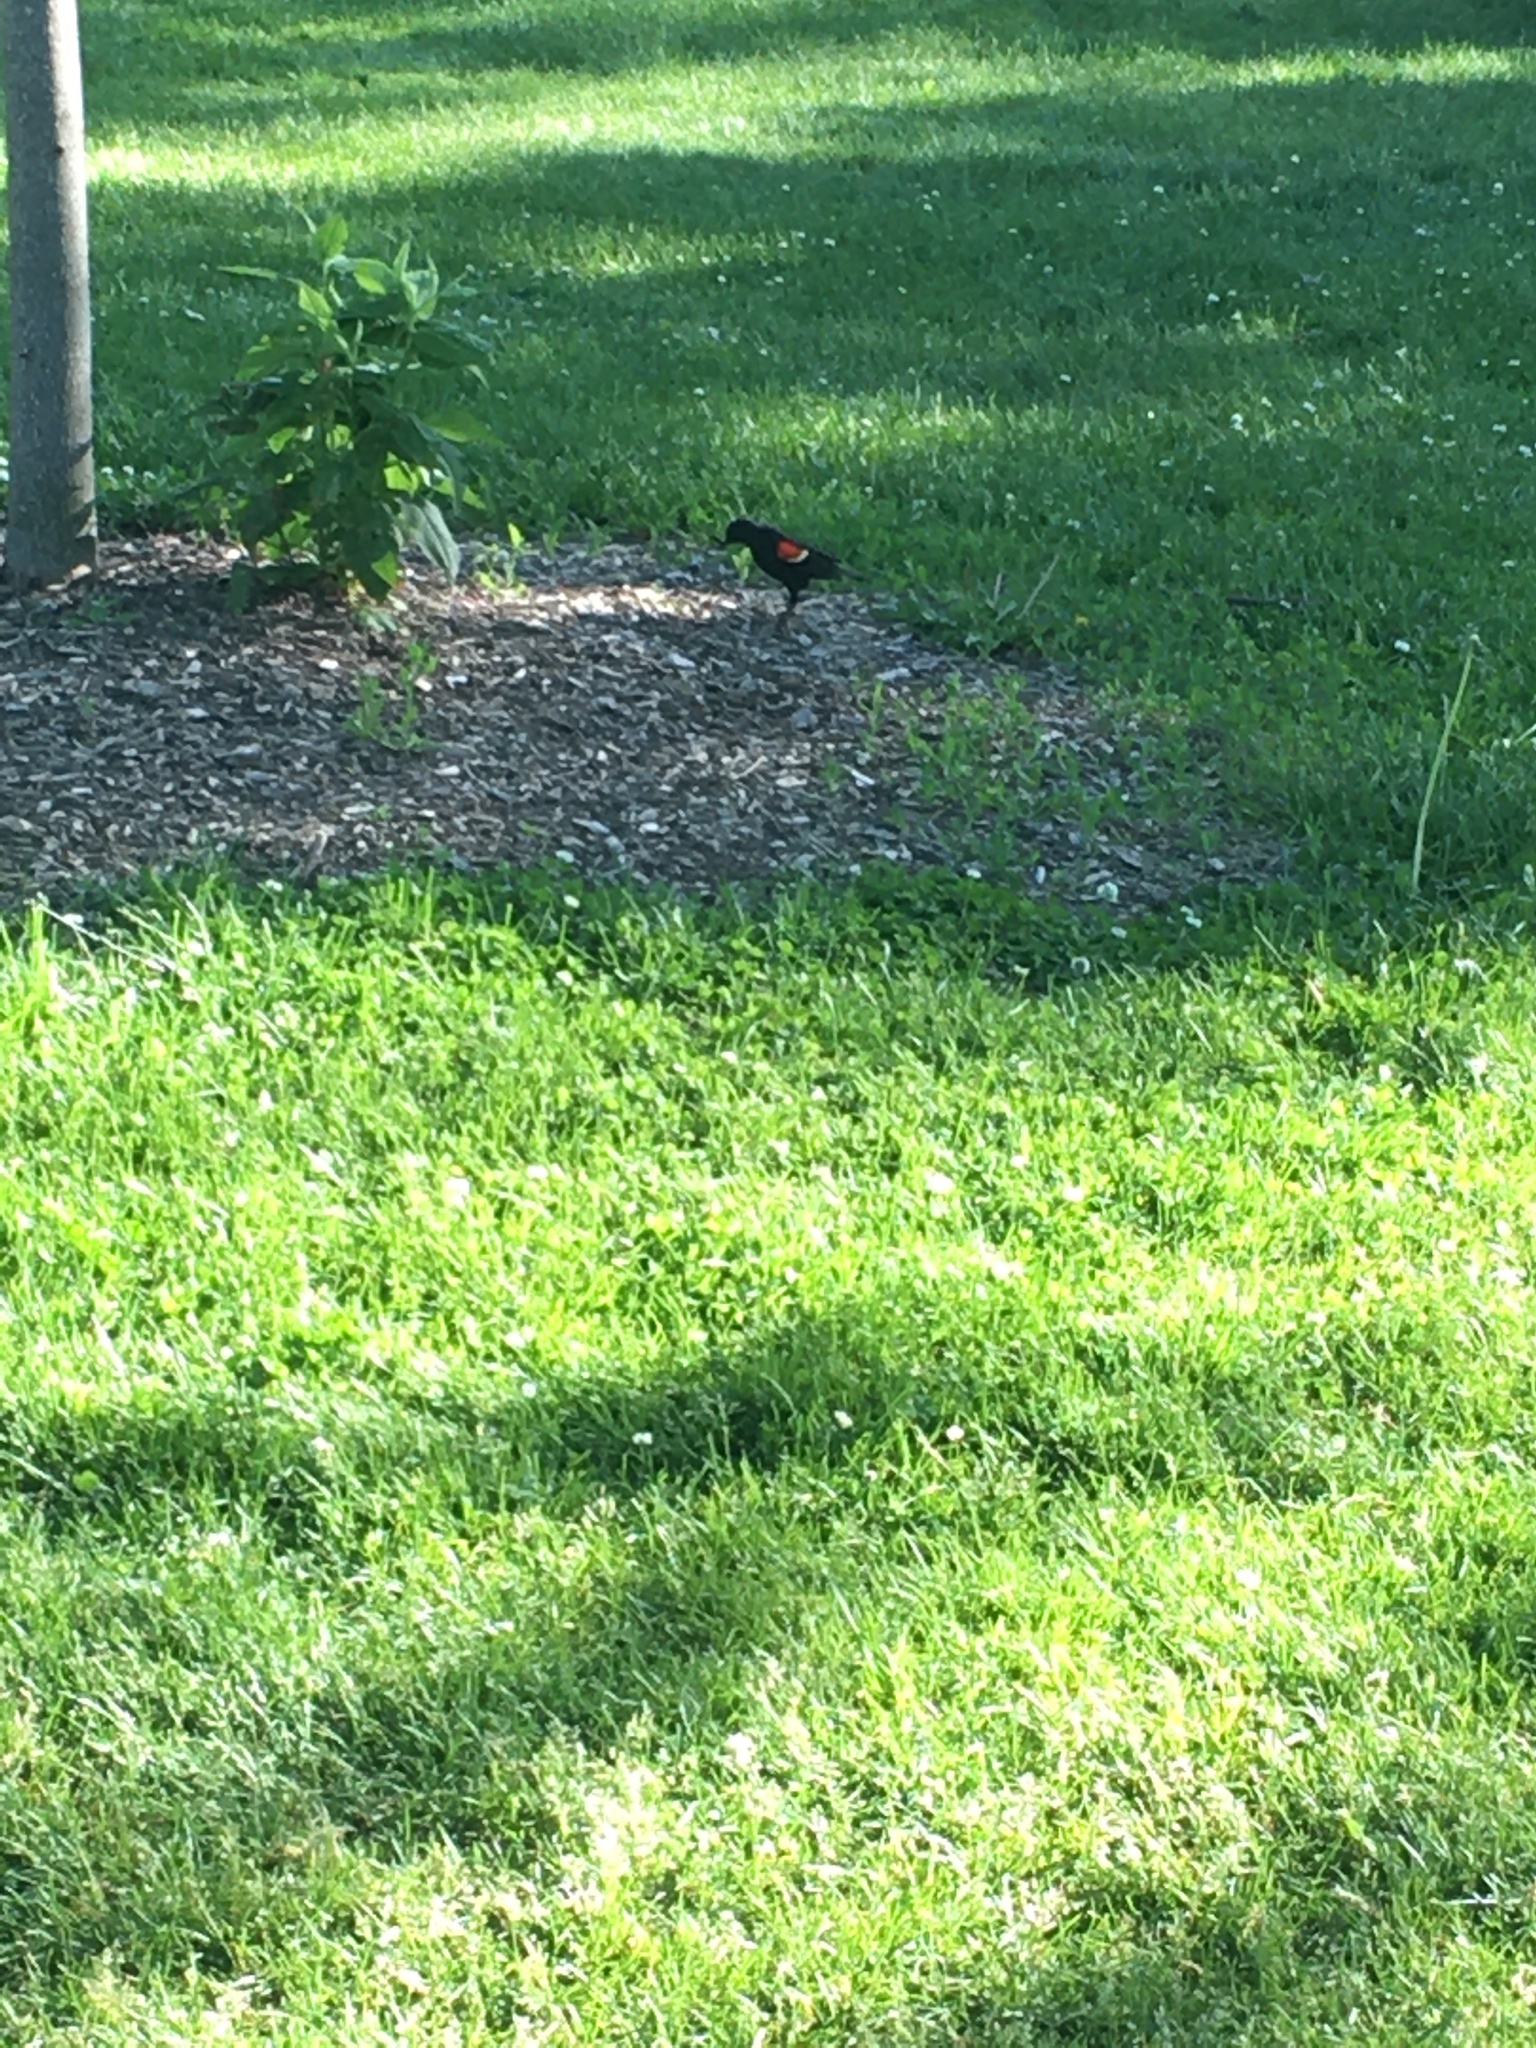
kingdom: Animalia
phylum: Chordata
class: Aves
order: Passeriformes
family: Icteridae
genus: Agelaius
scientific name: Agelaius phoeniceus
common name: Red-winged blackbird
